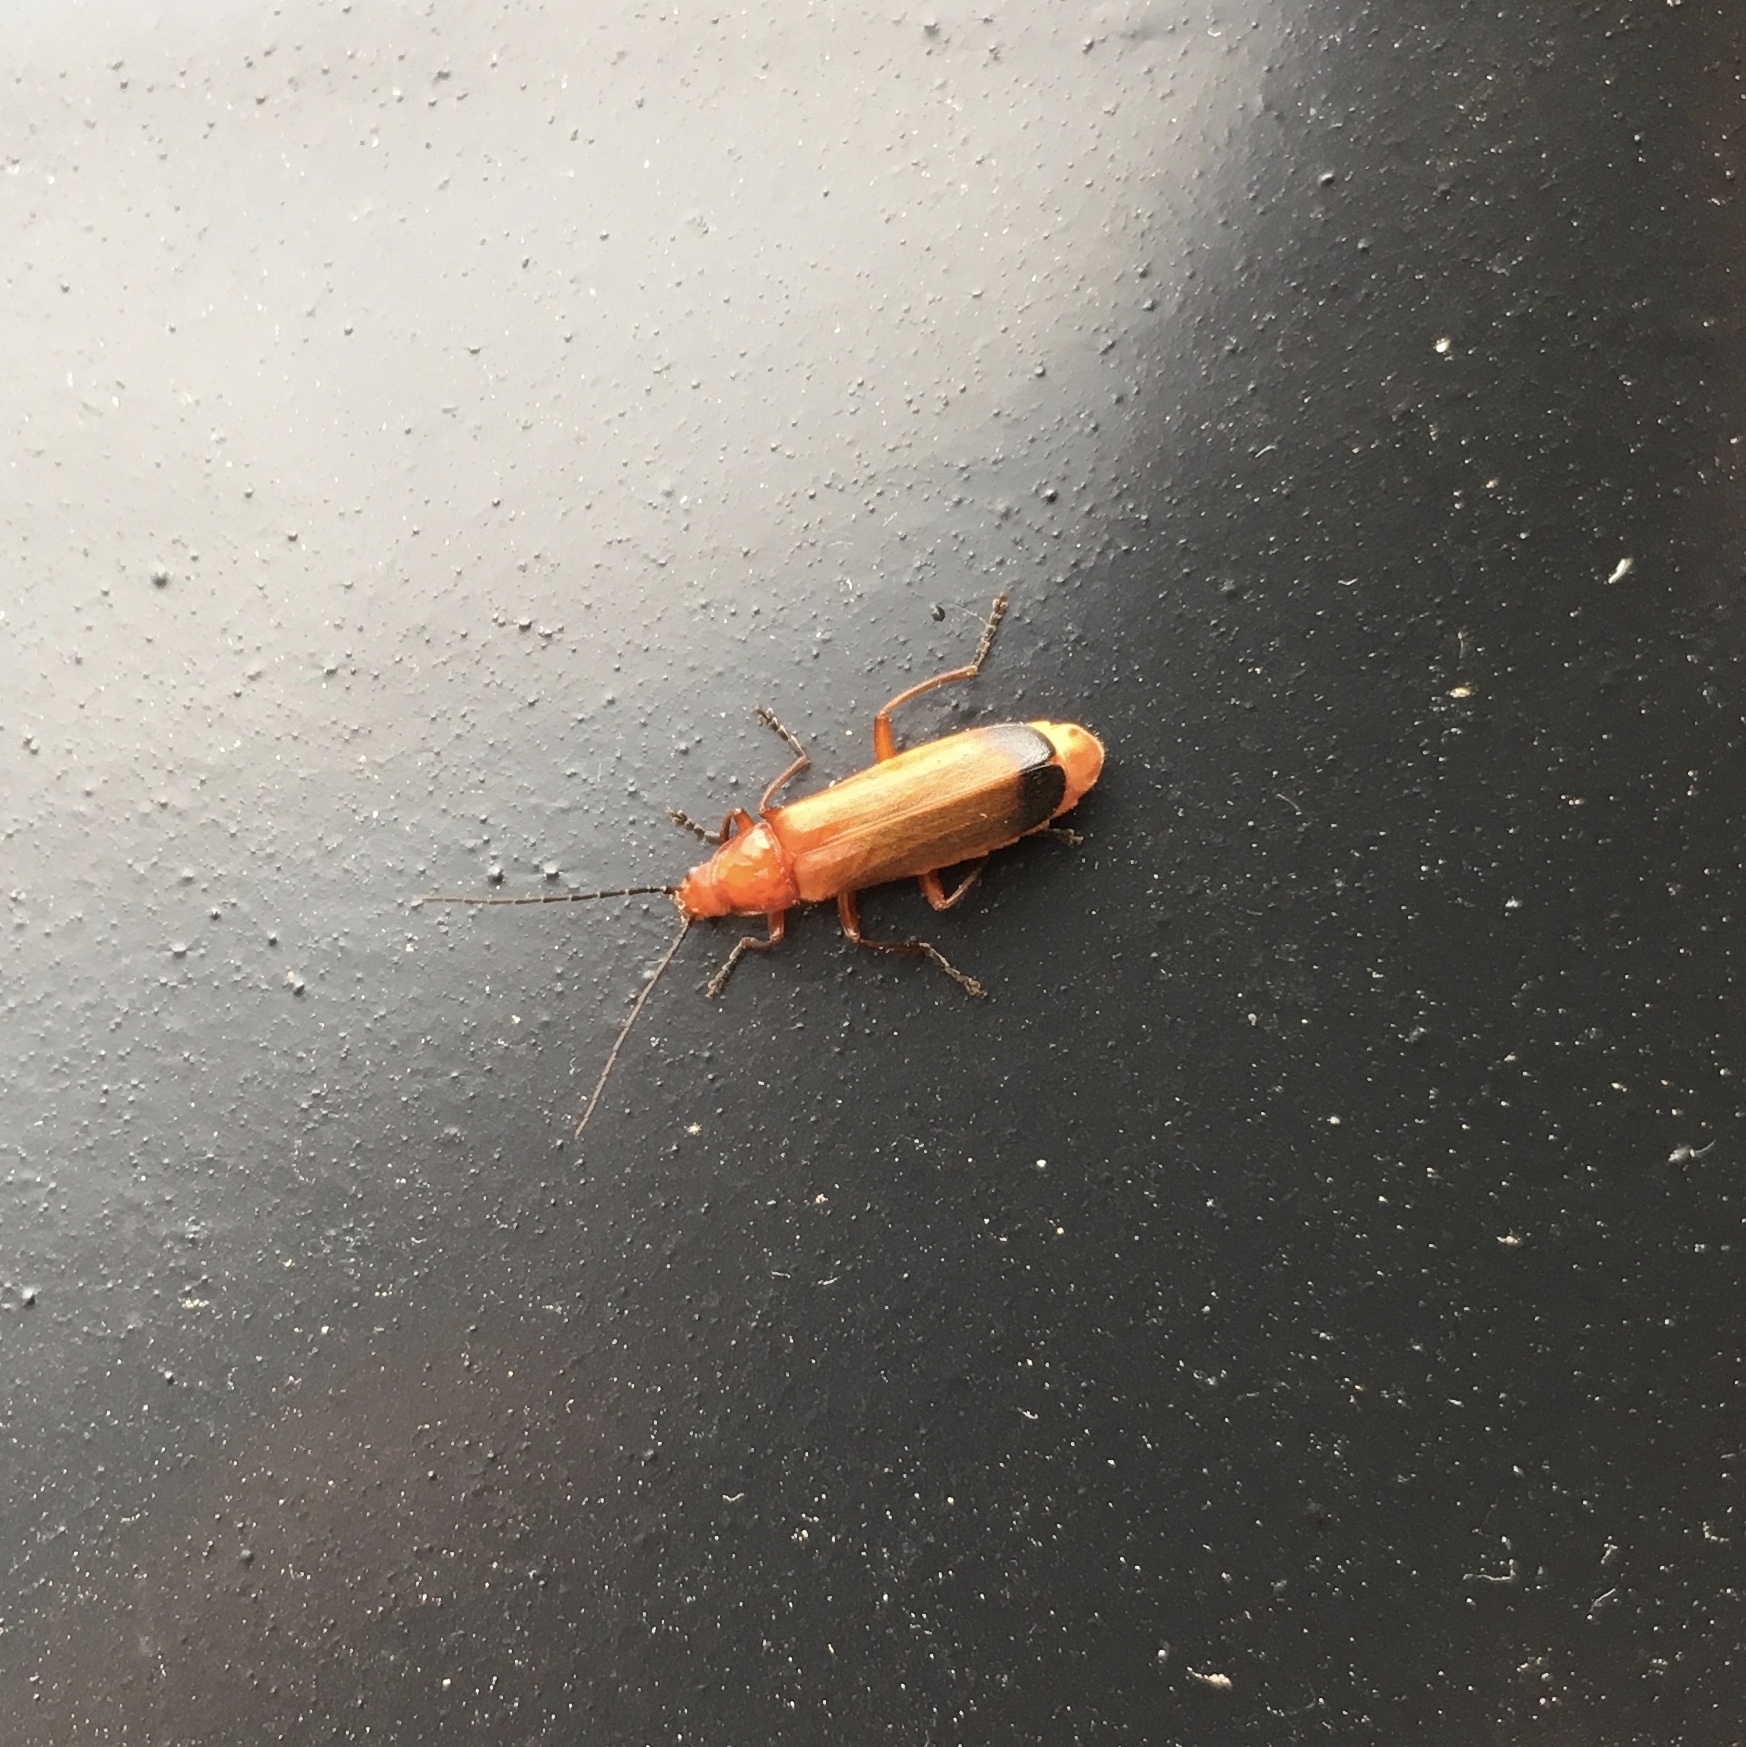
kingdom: Animalia
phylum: Arthropoda
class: Insecta
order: Coleoptera
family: Cantharidae
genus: Rhagonycha
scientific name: Rhagonycha fulva
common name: Common red soldier beetle
